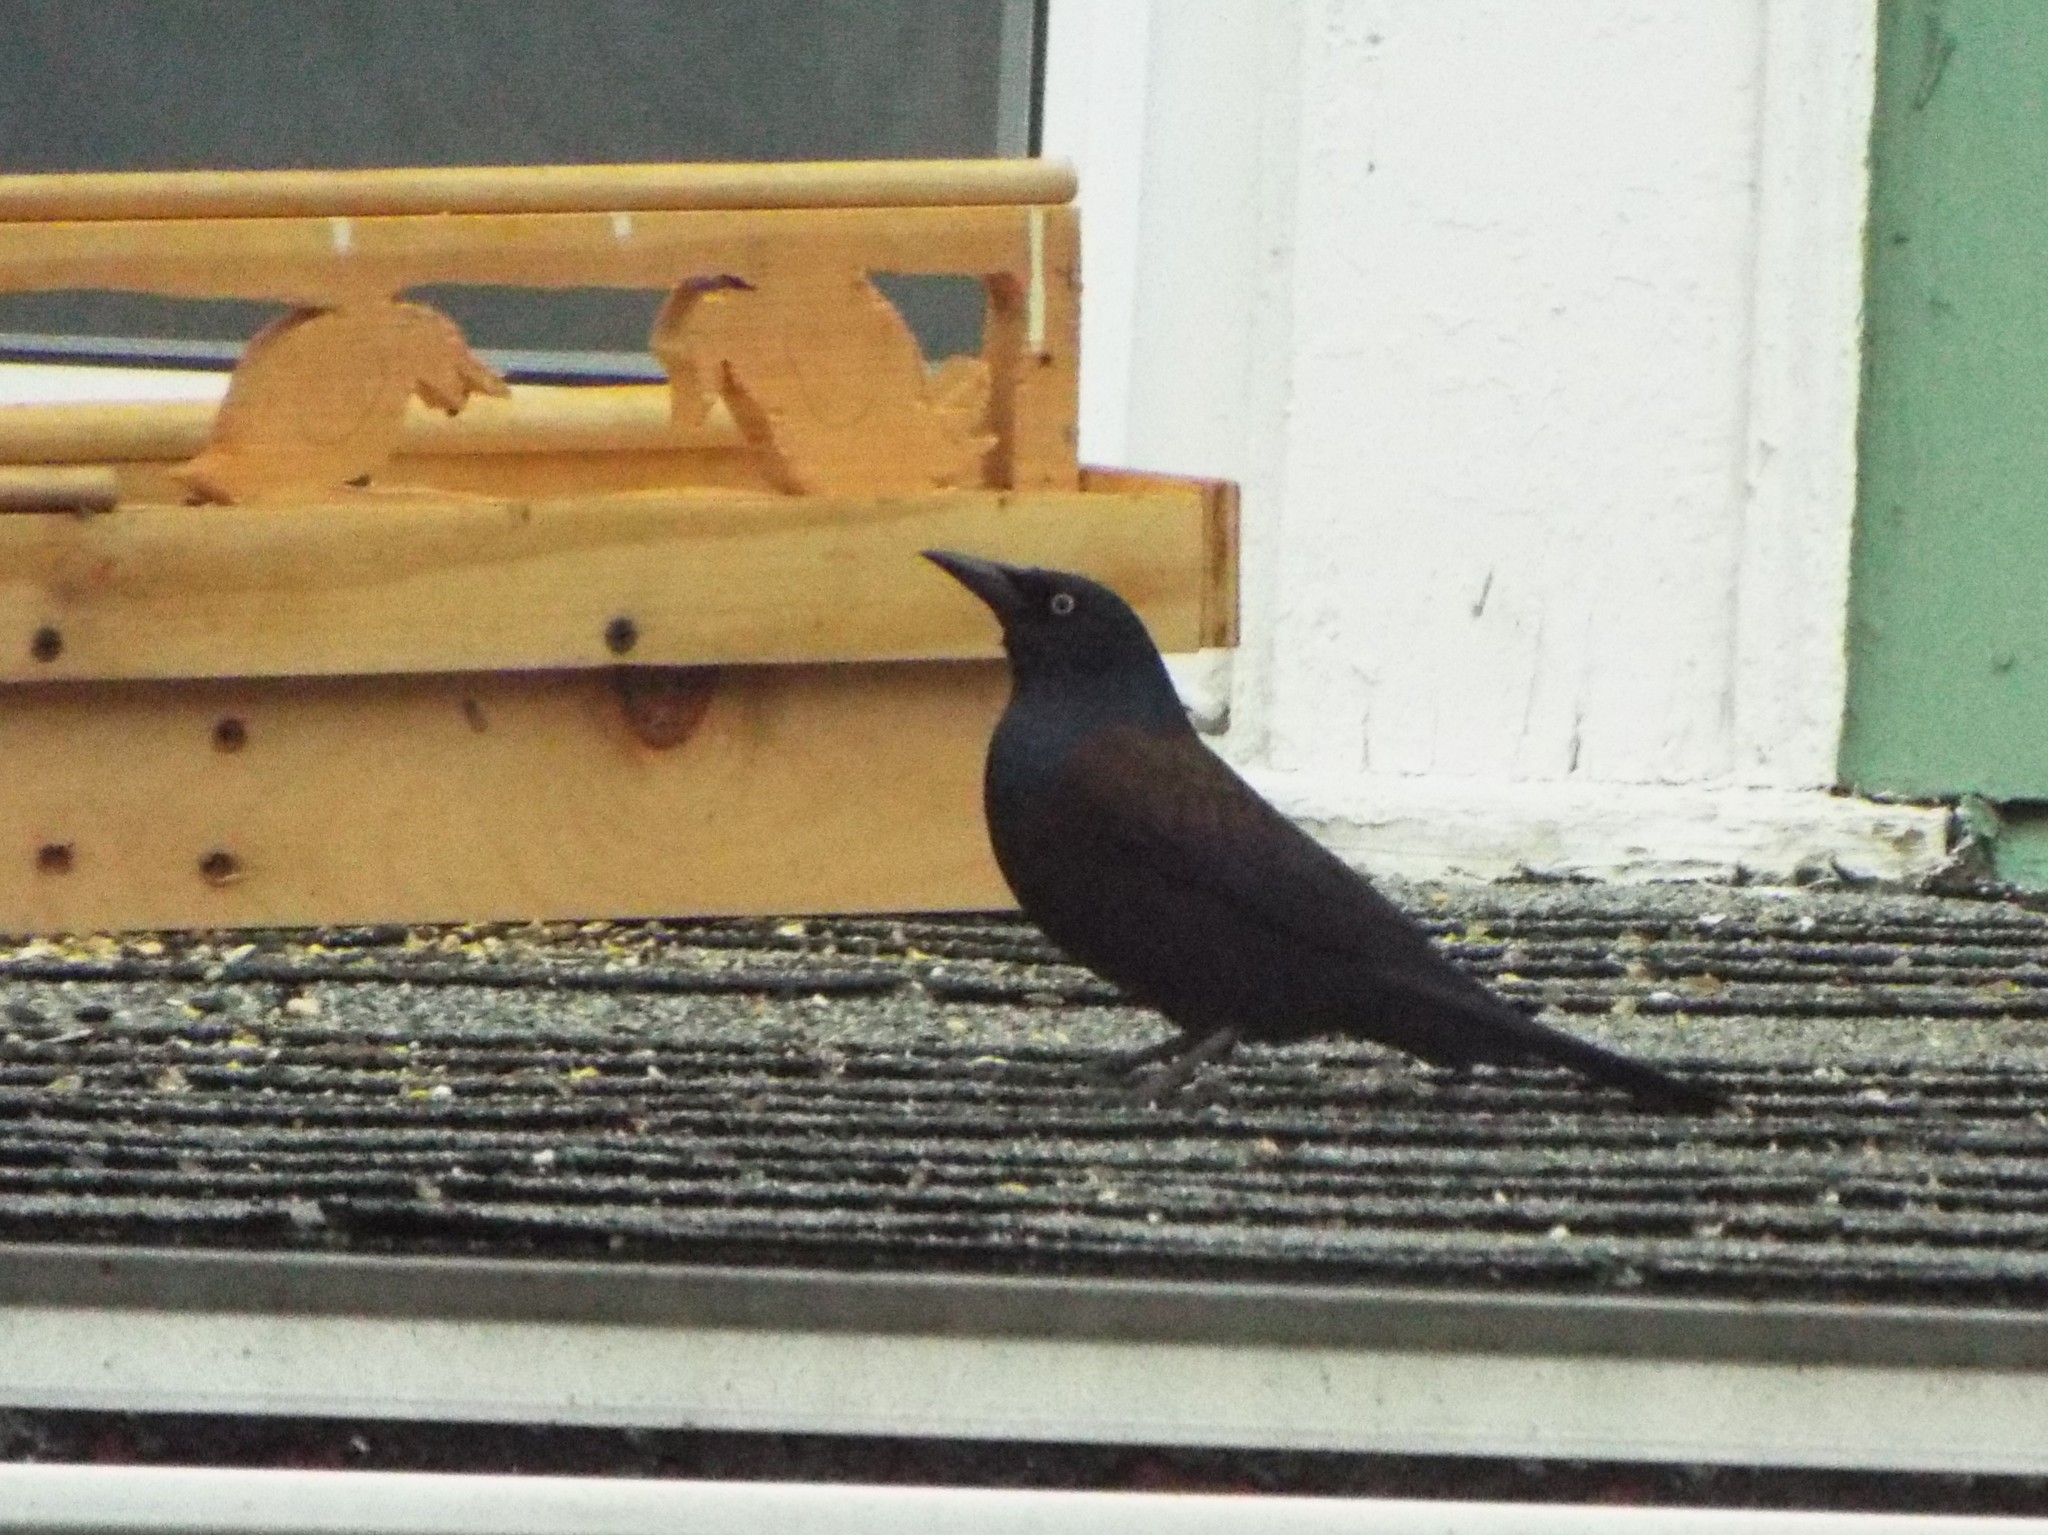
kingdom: Animalia
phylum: Chordata
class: Aves
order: Passeriformes
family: Icteridae
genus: Quiscalus
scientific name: Quiscalus quiscula
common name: Common grackle
